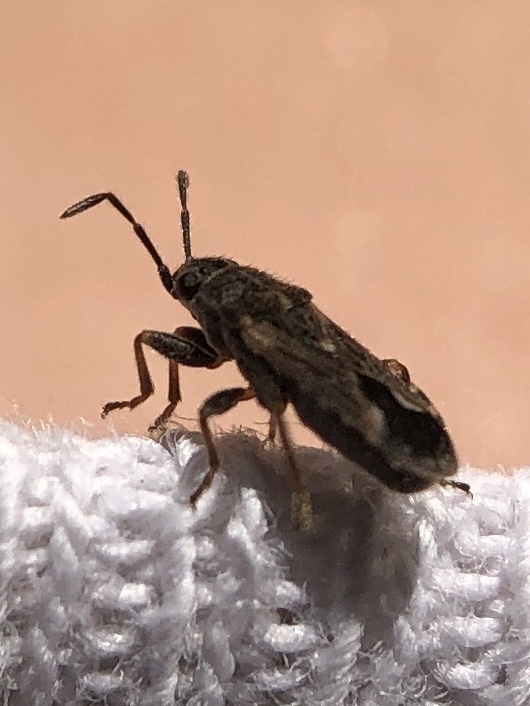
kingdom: Animalia
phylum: Arthropoda
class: Insecta
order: Hemiptera
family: Lygaeidae
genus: Lygaeosoma
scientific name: Lygaeosoma sardeum
